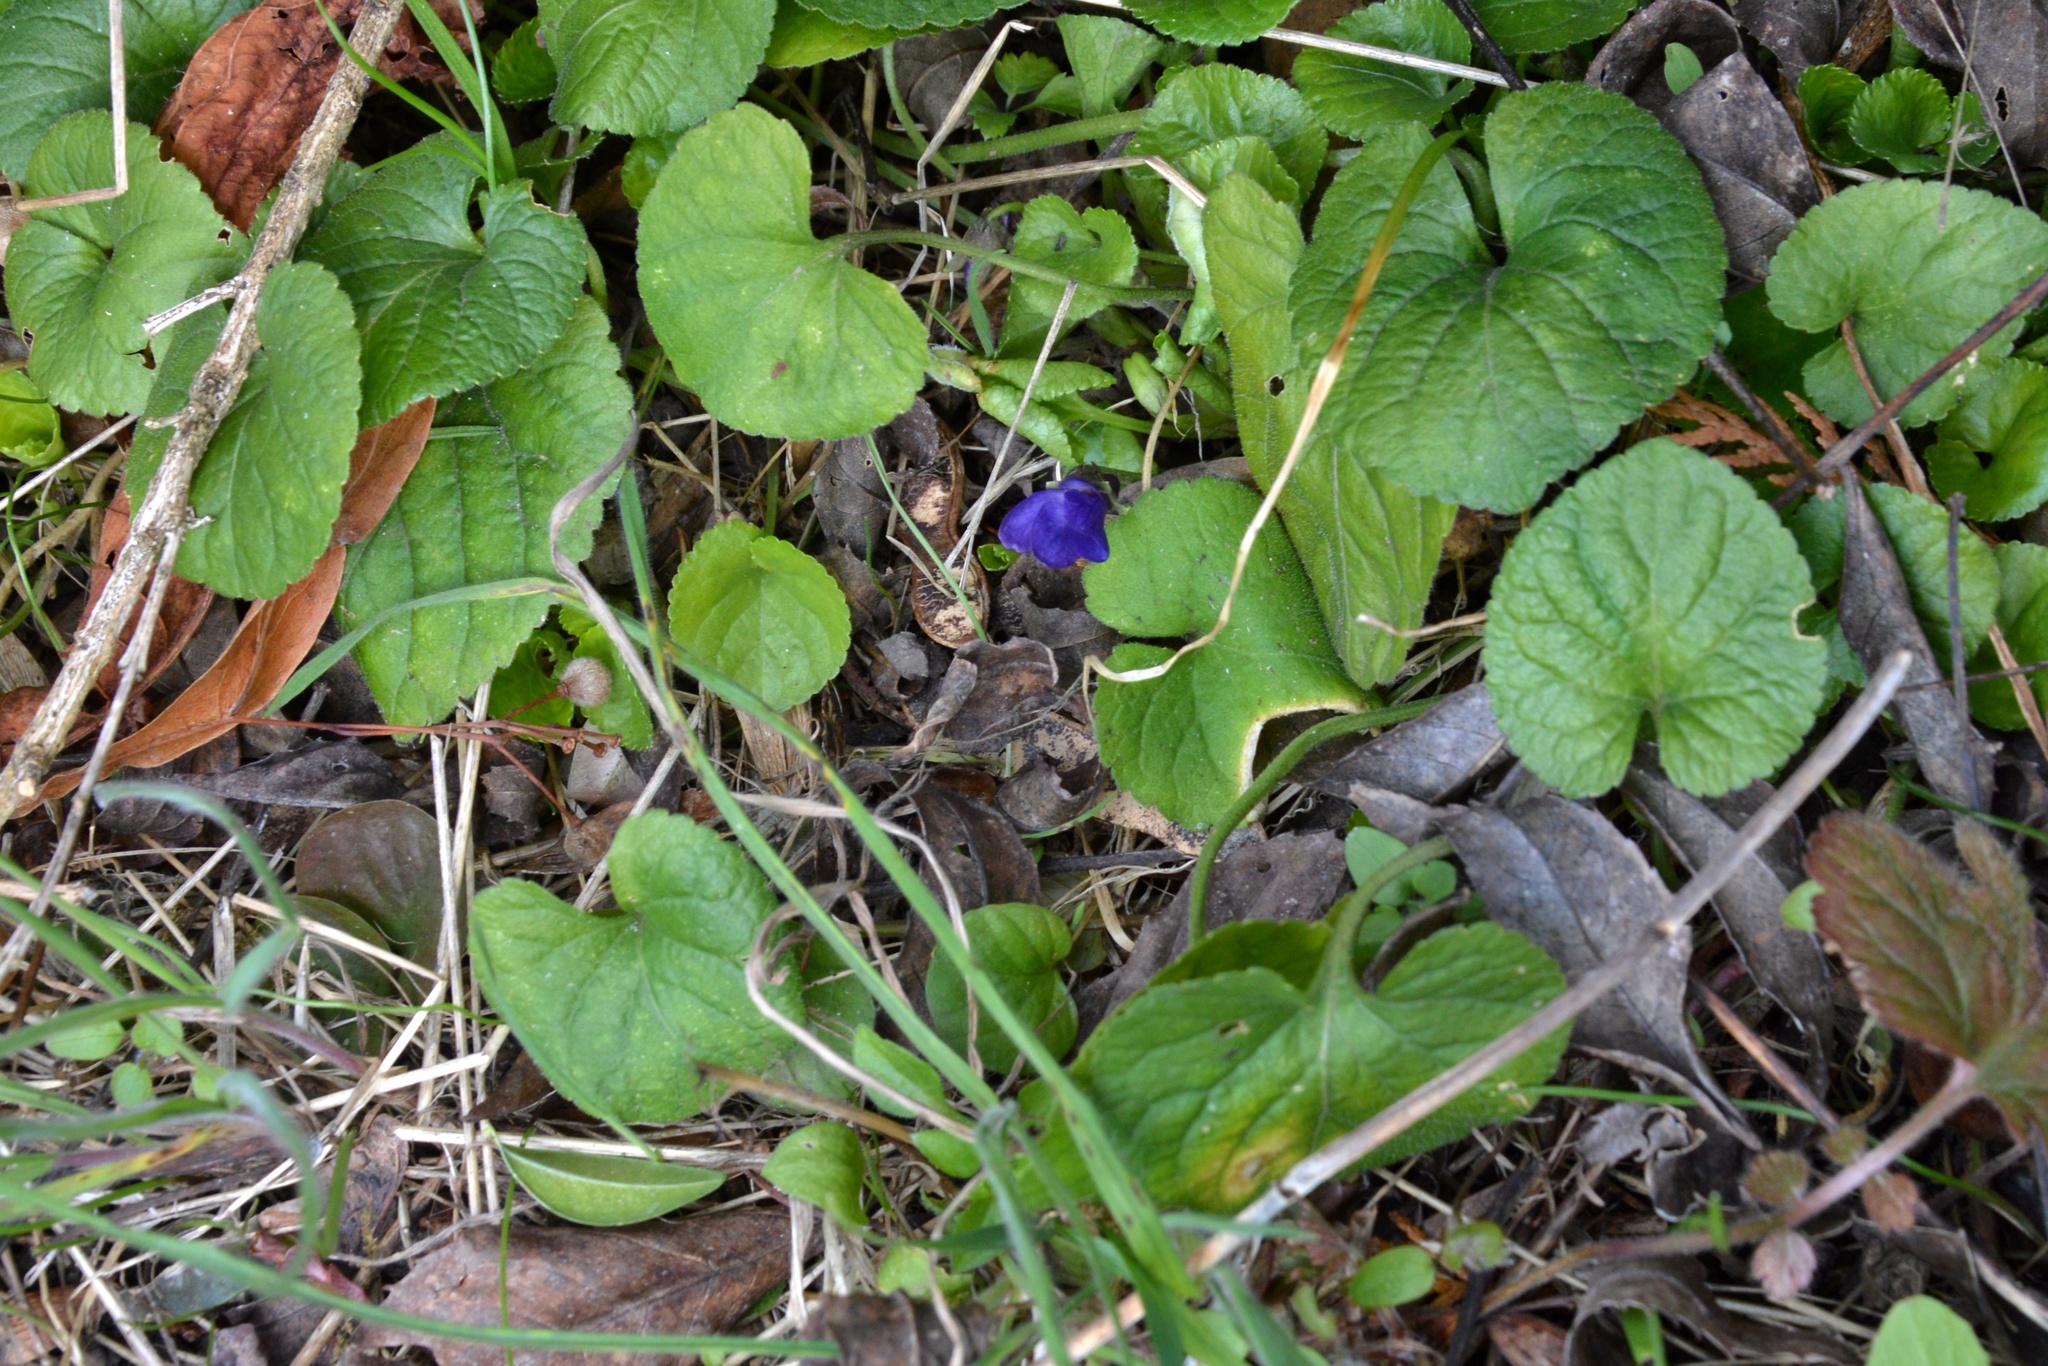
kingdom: Plantae
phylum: Tracheophyta
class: Magnoliopsida
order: Malpighiales
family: Violaceae
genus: Viola
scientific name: Viola odorata
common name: Sweet violet
